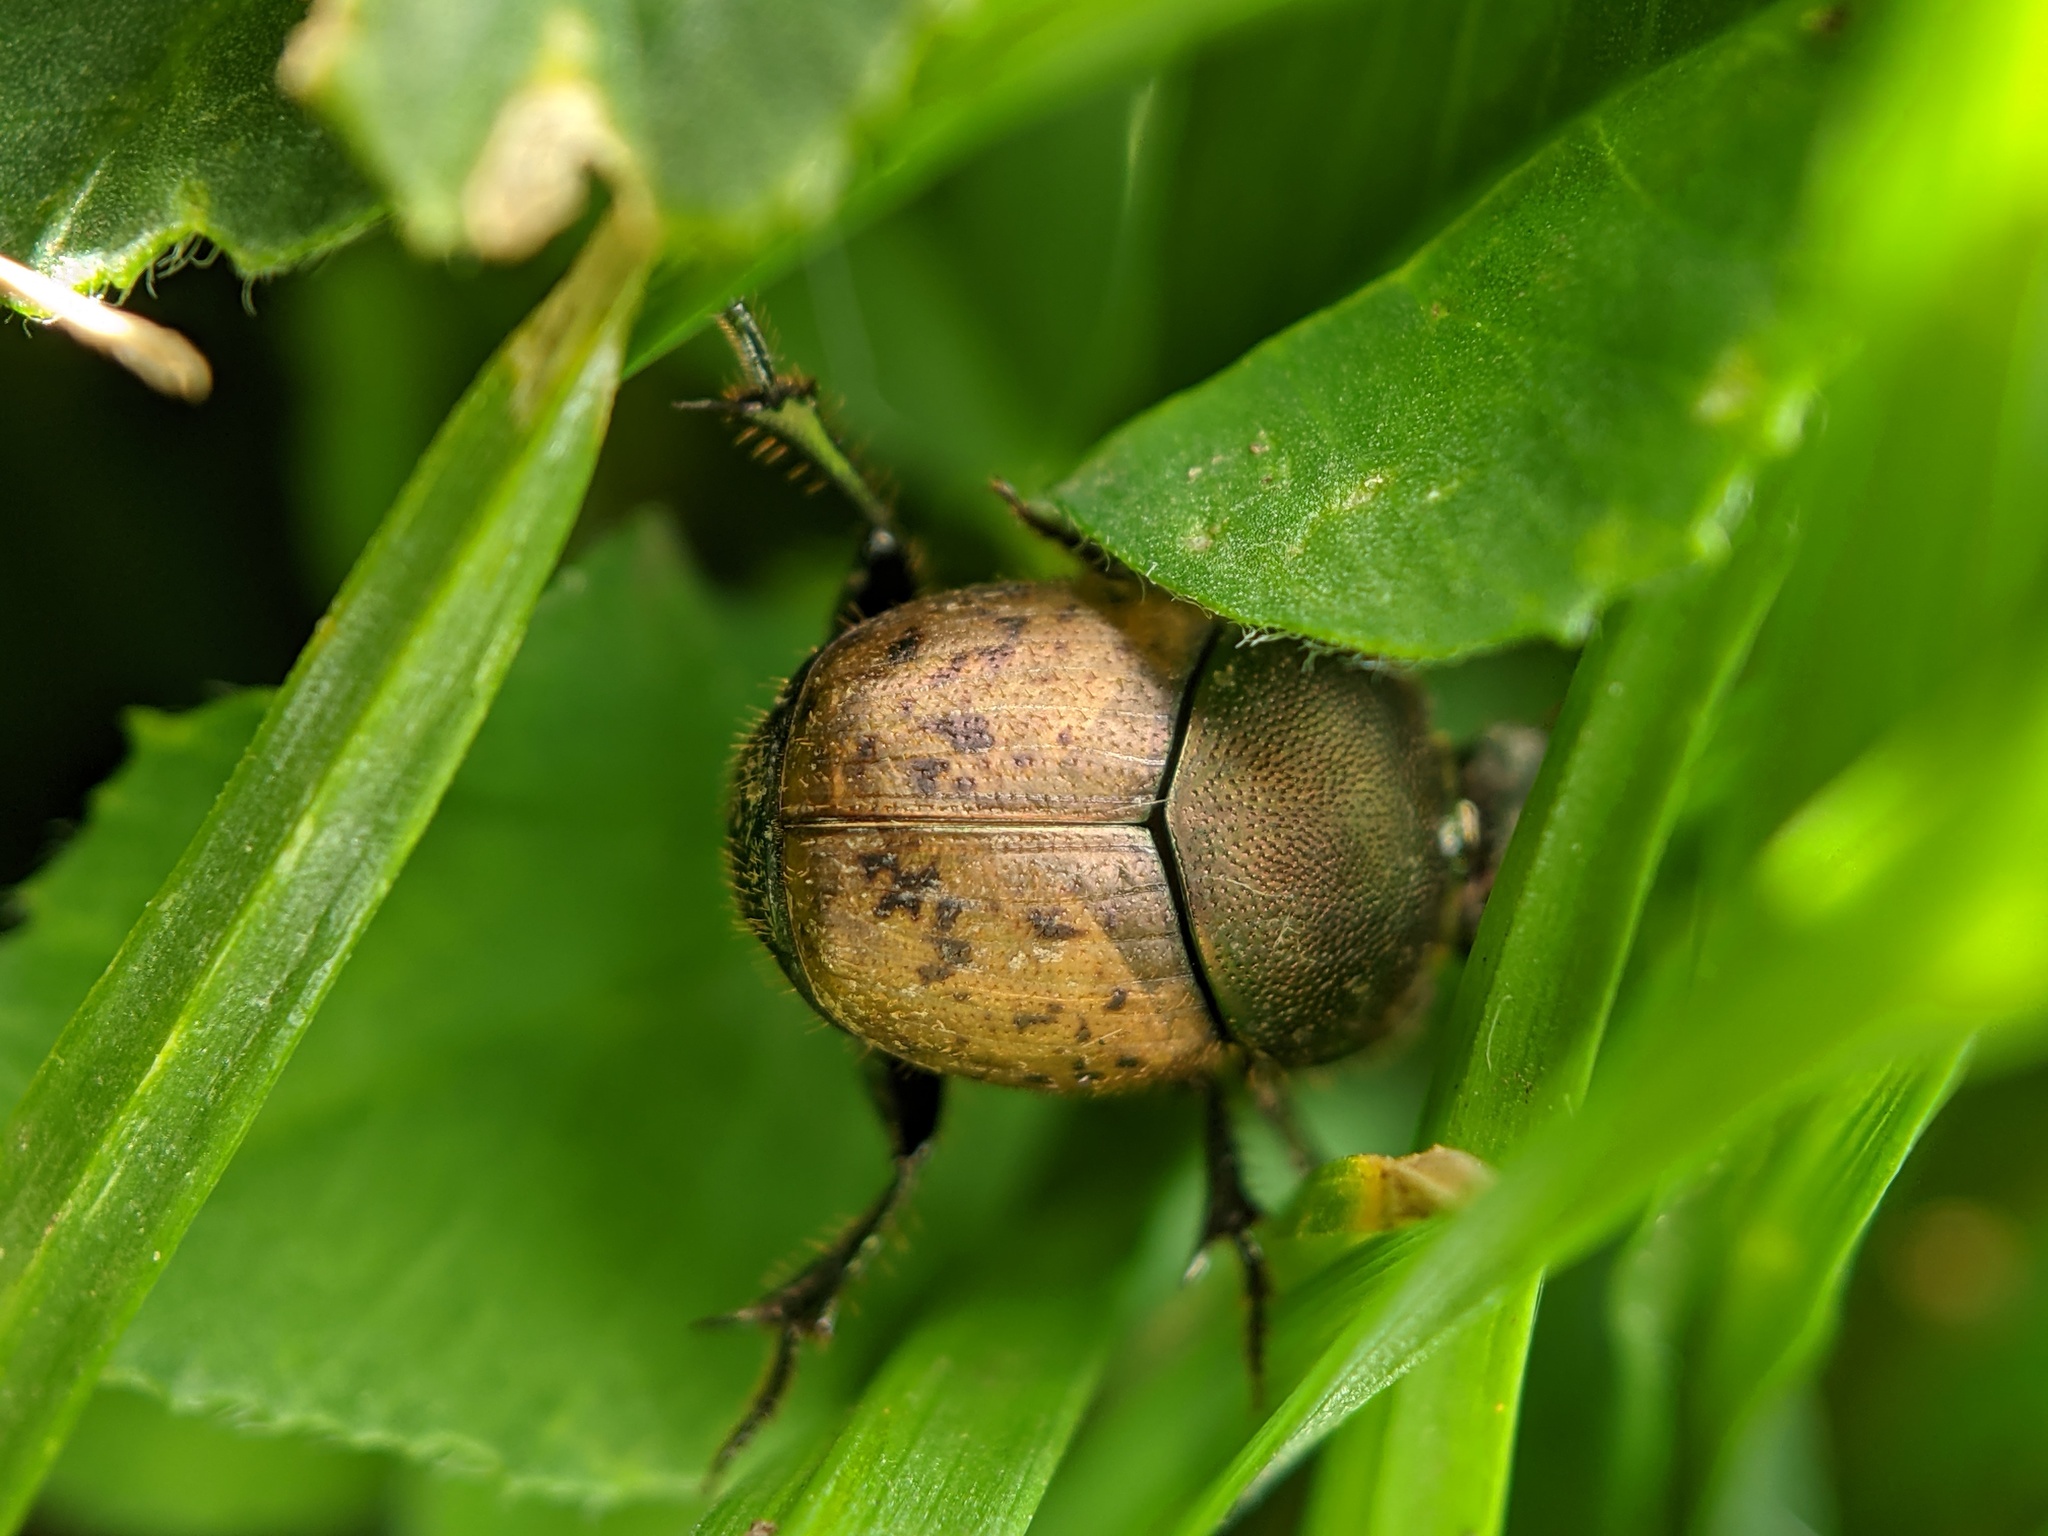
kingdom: Animalia
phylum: Arthropoda
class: Insecta
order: Coleoptera
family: Scarabaeidae
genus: Onthophagus
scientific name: Onthophagus coenobita
